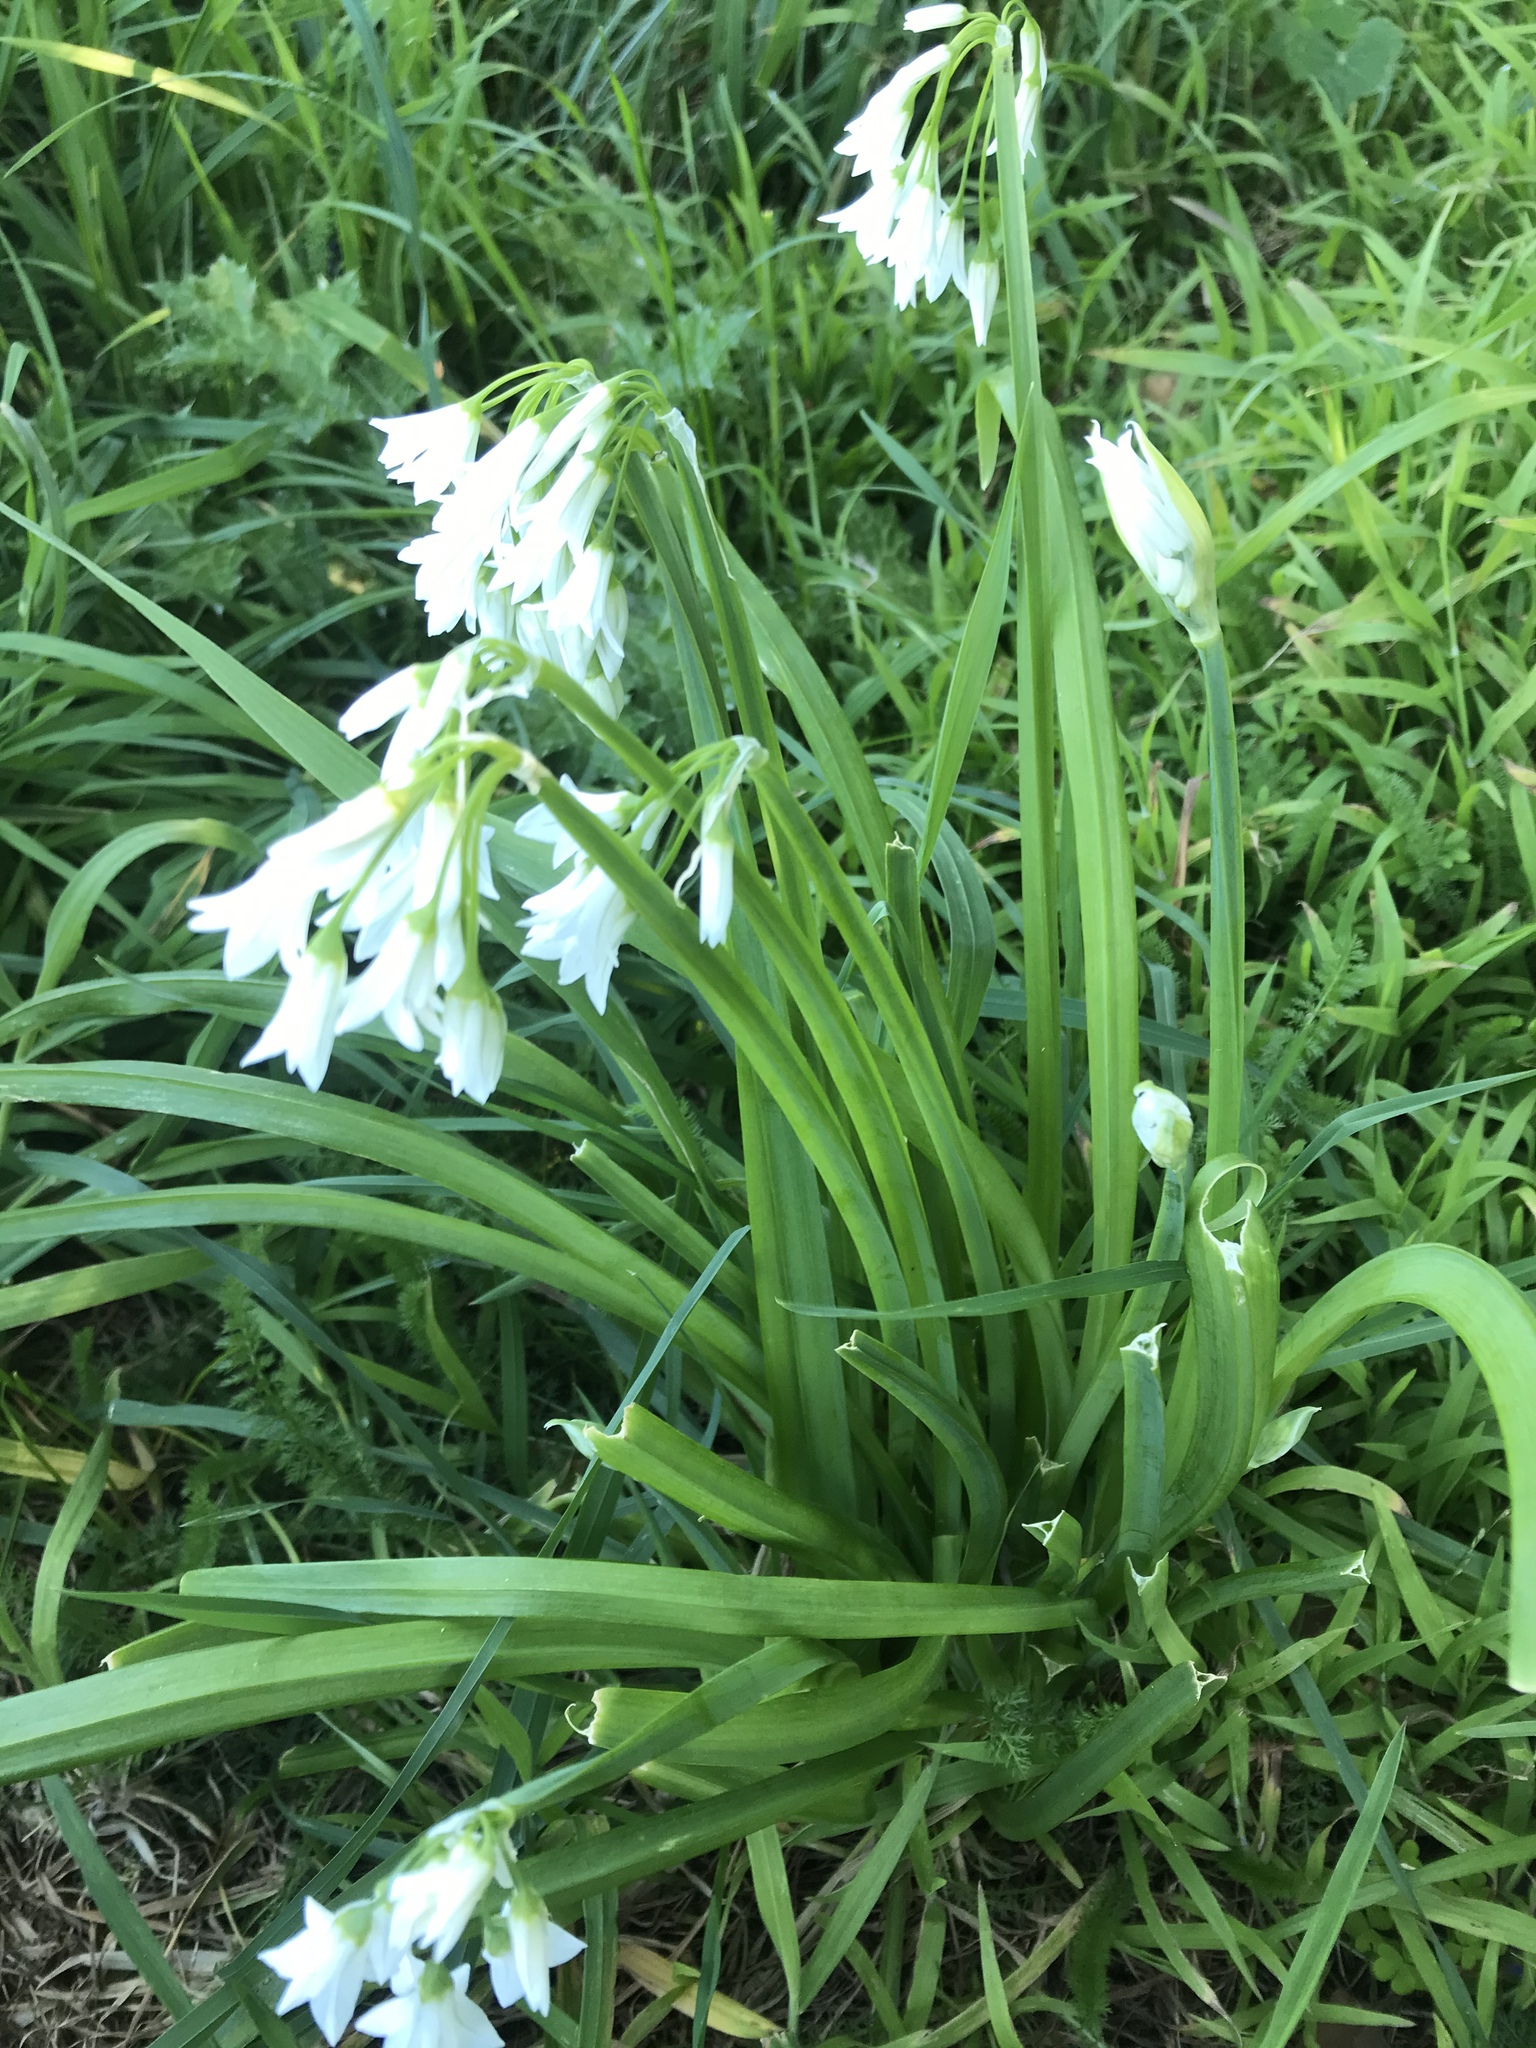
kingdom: Plantae
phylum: Tracheophyta
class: Liliopsida
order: Asparagales
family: Amaryllidaceae
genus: Allium
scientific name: Allium triquetrum
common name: Three-cornered garlic
